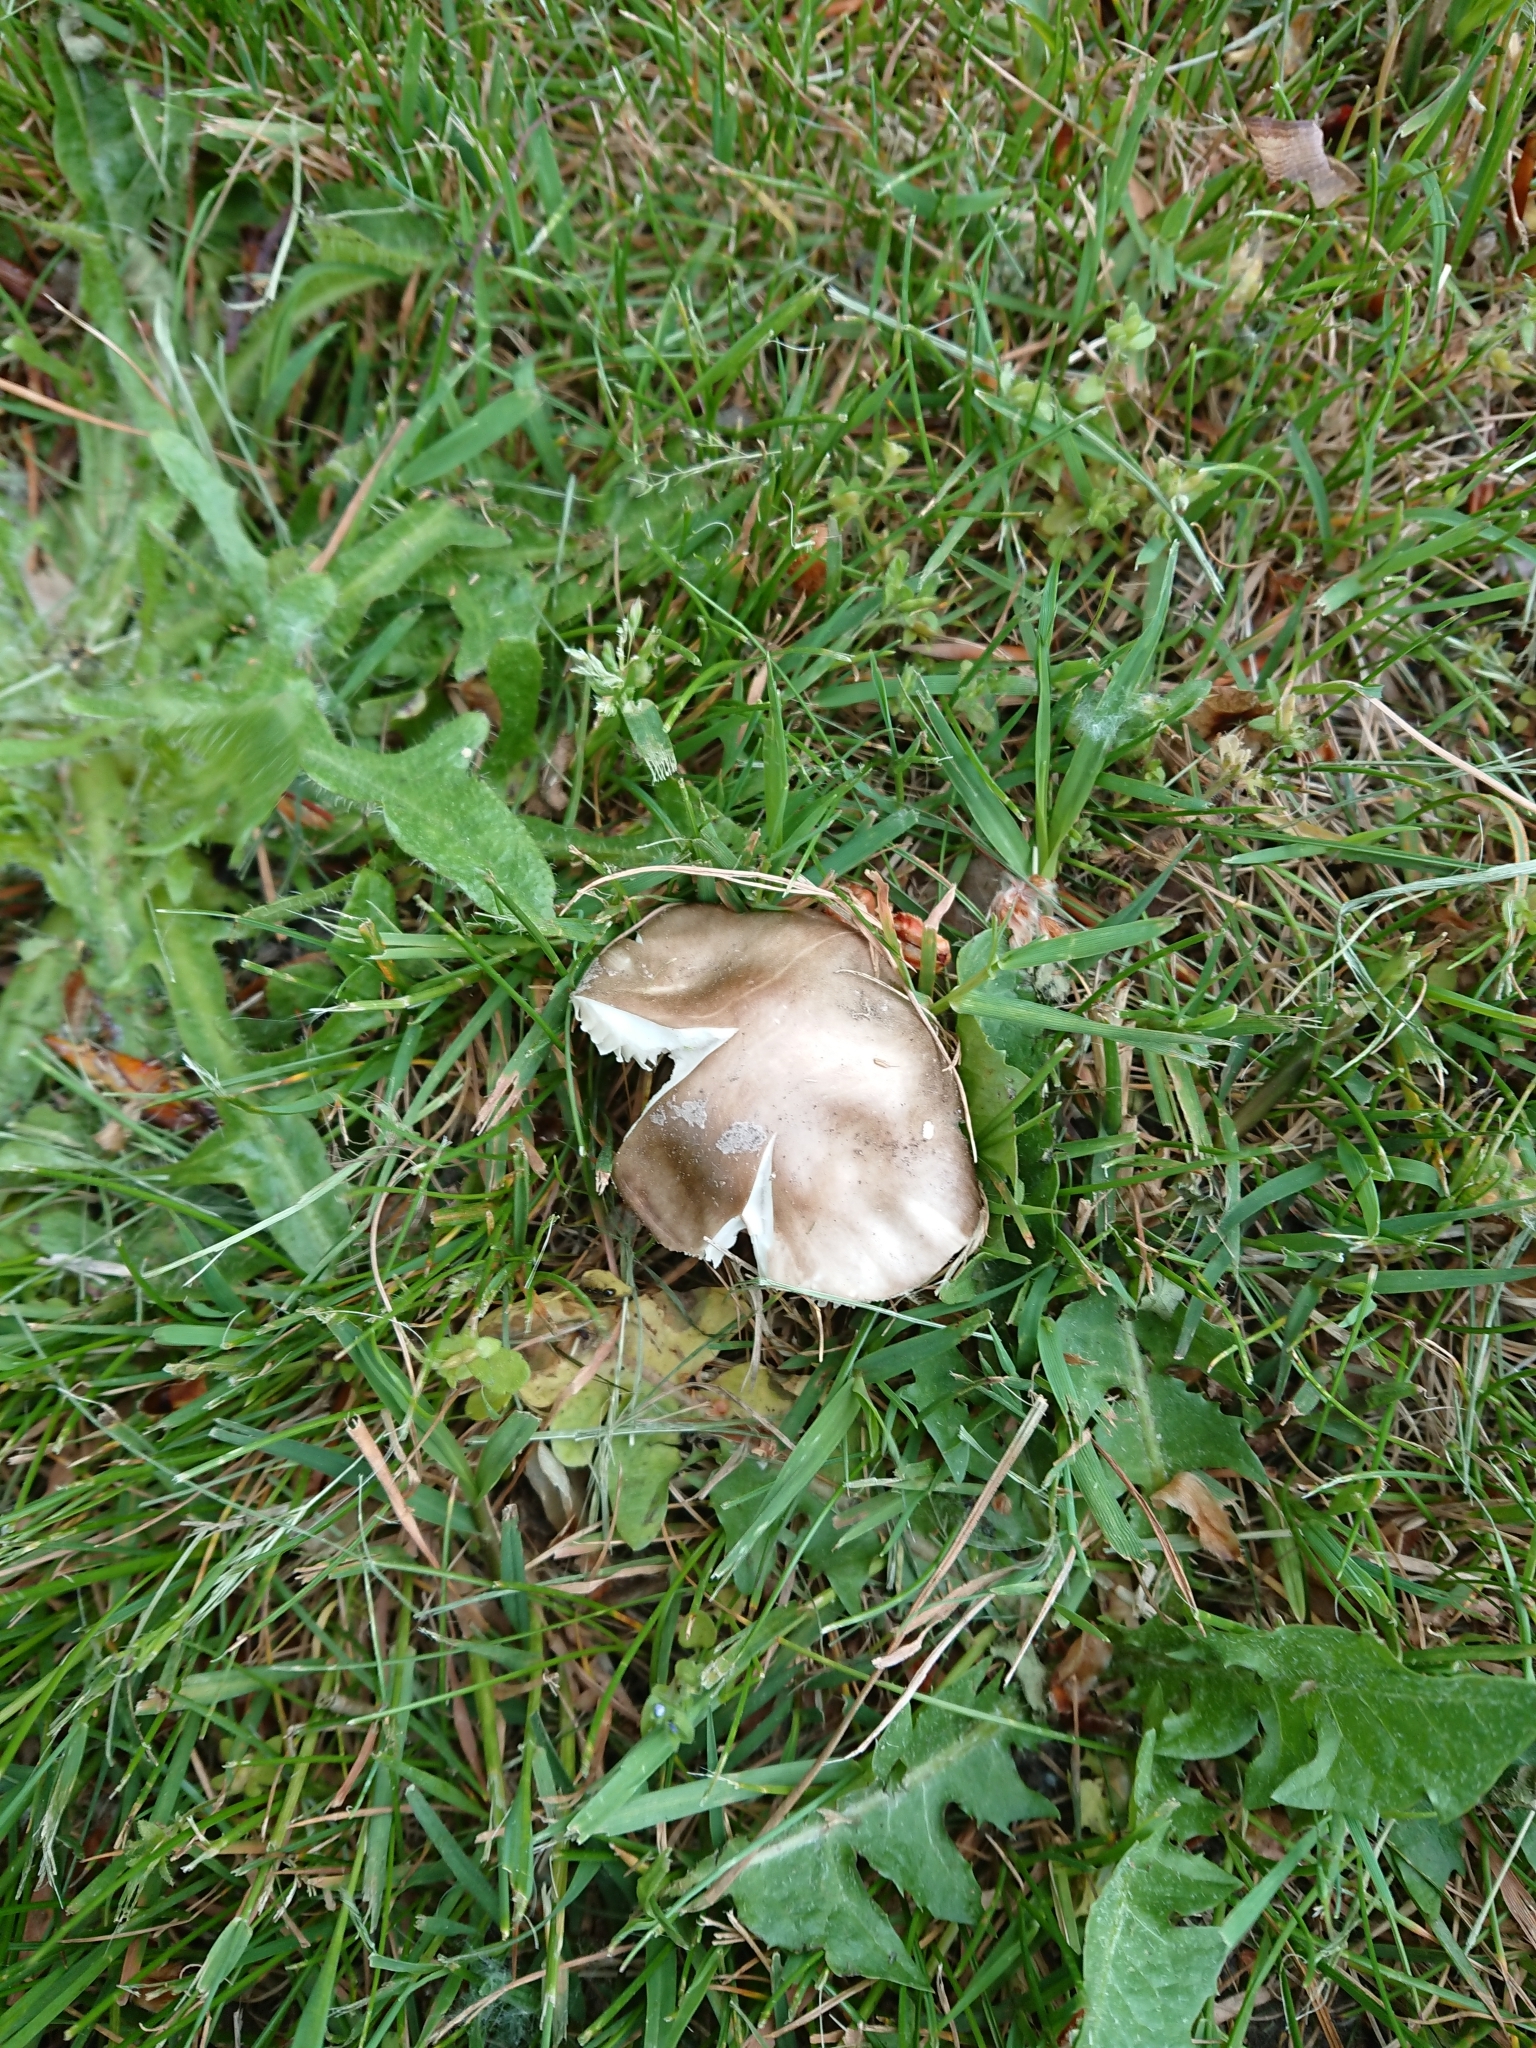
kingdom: Fungi
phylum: Basidiomycota
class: Agaricomycetes
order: Agaricales
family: Amanitaceae
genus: Amanita
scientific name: Amanita excelsa
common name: European false blusher
